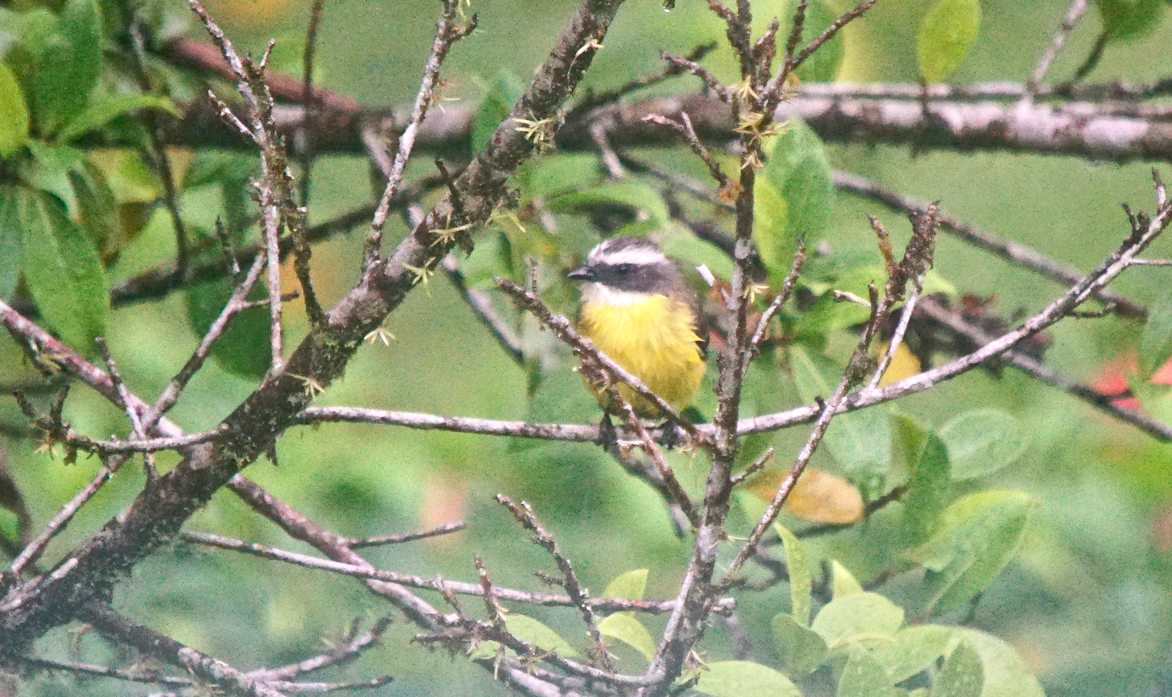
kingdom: Animalia
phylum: Chordata
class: Aves
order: Passeriformes
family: Tyrannidae
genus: Myiozetetes
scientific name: Myiozetetes similis
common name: Social flycatcher
